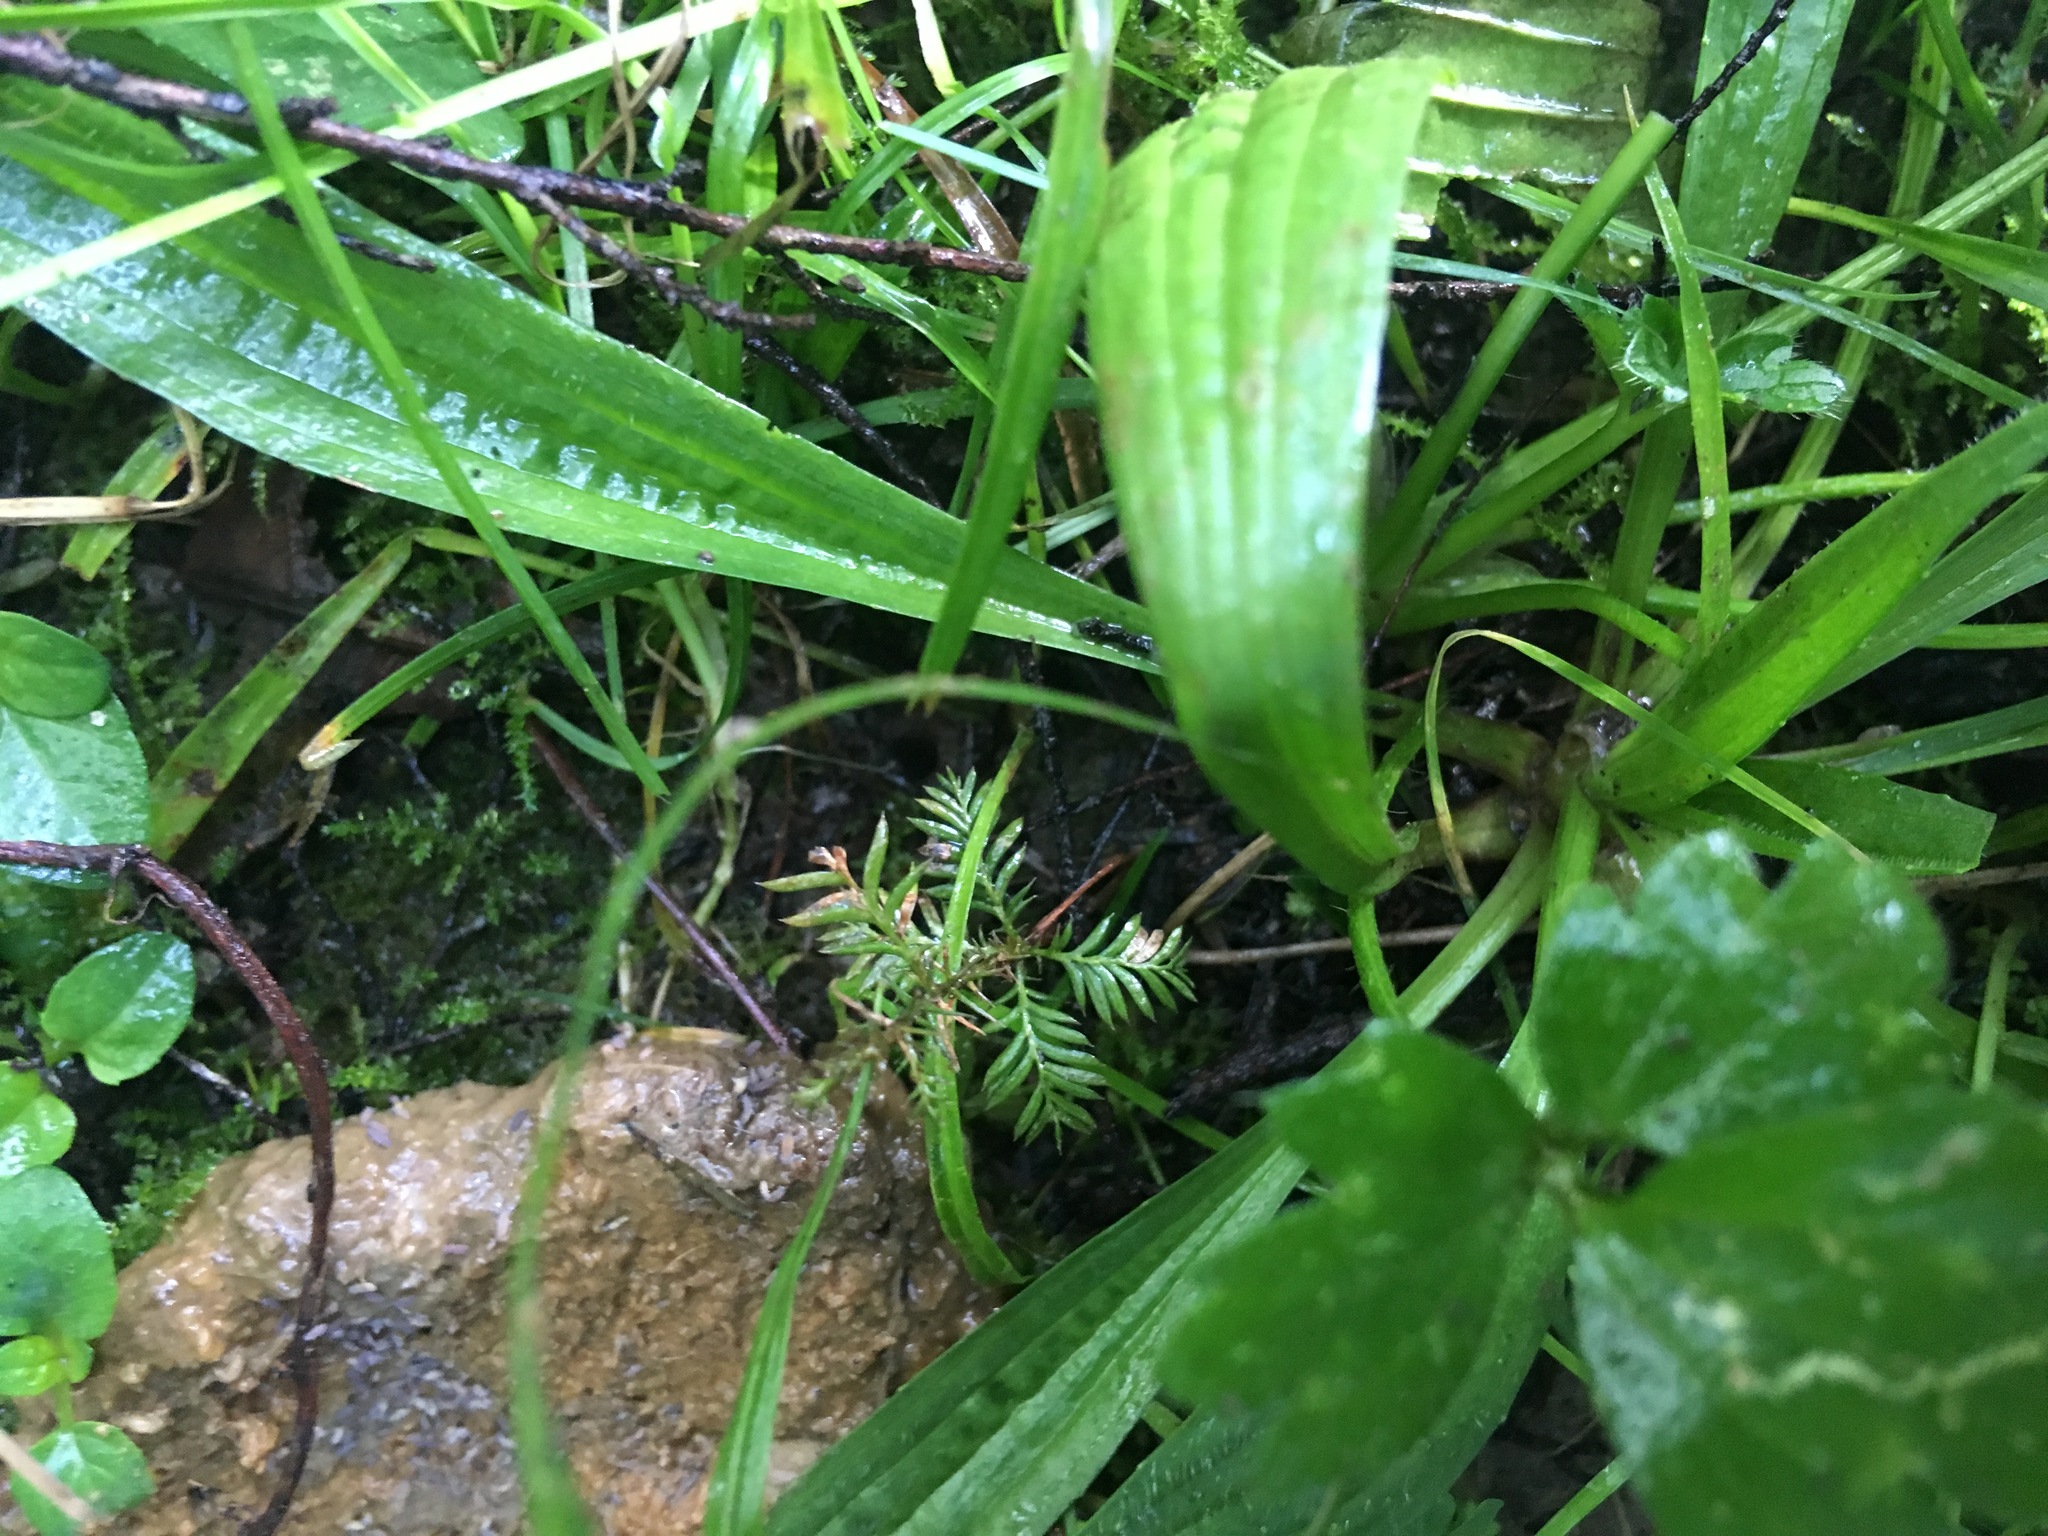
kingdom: Plantae
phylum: Tracheophyta
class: Pinopsida
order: Pinales
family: Podocarpaceae
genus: Dacrycarpus
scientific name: Dacrycarpus dacrydioides
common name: White pine
